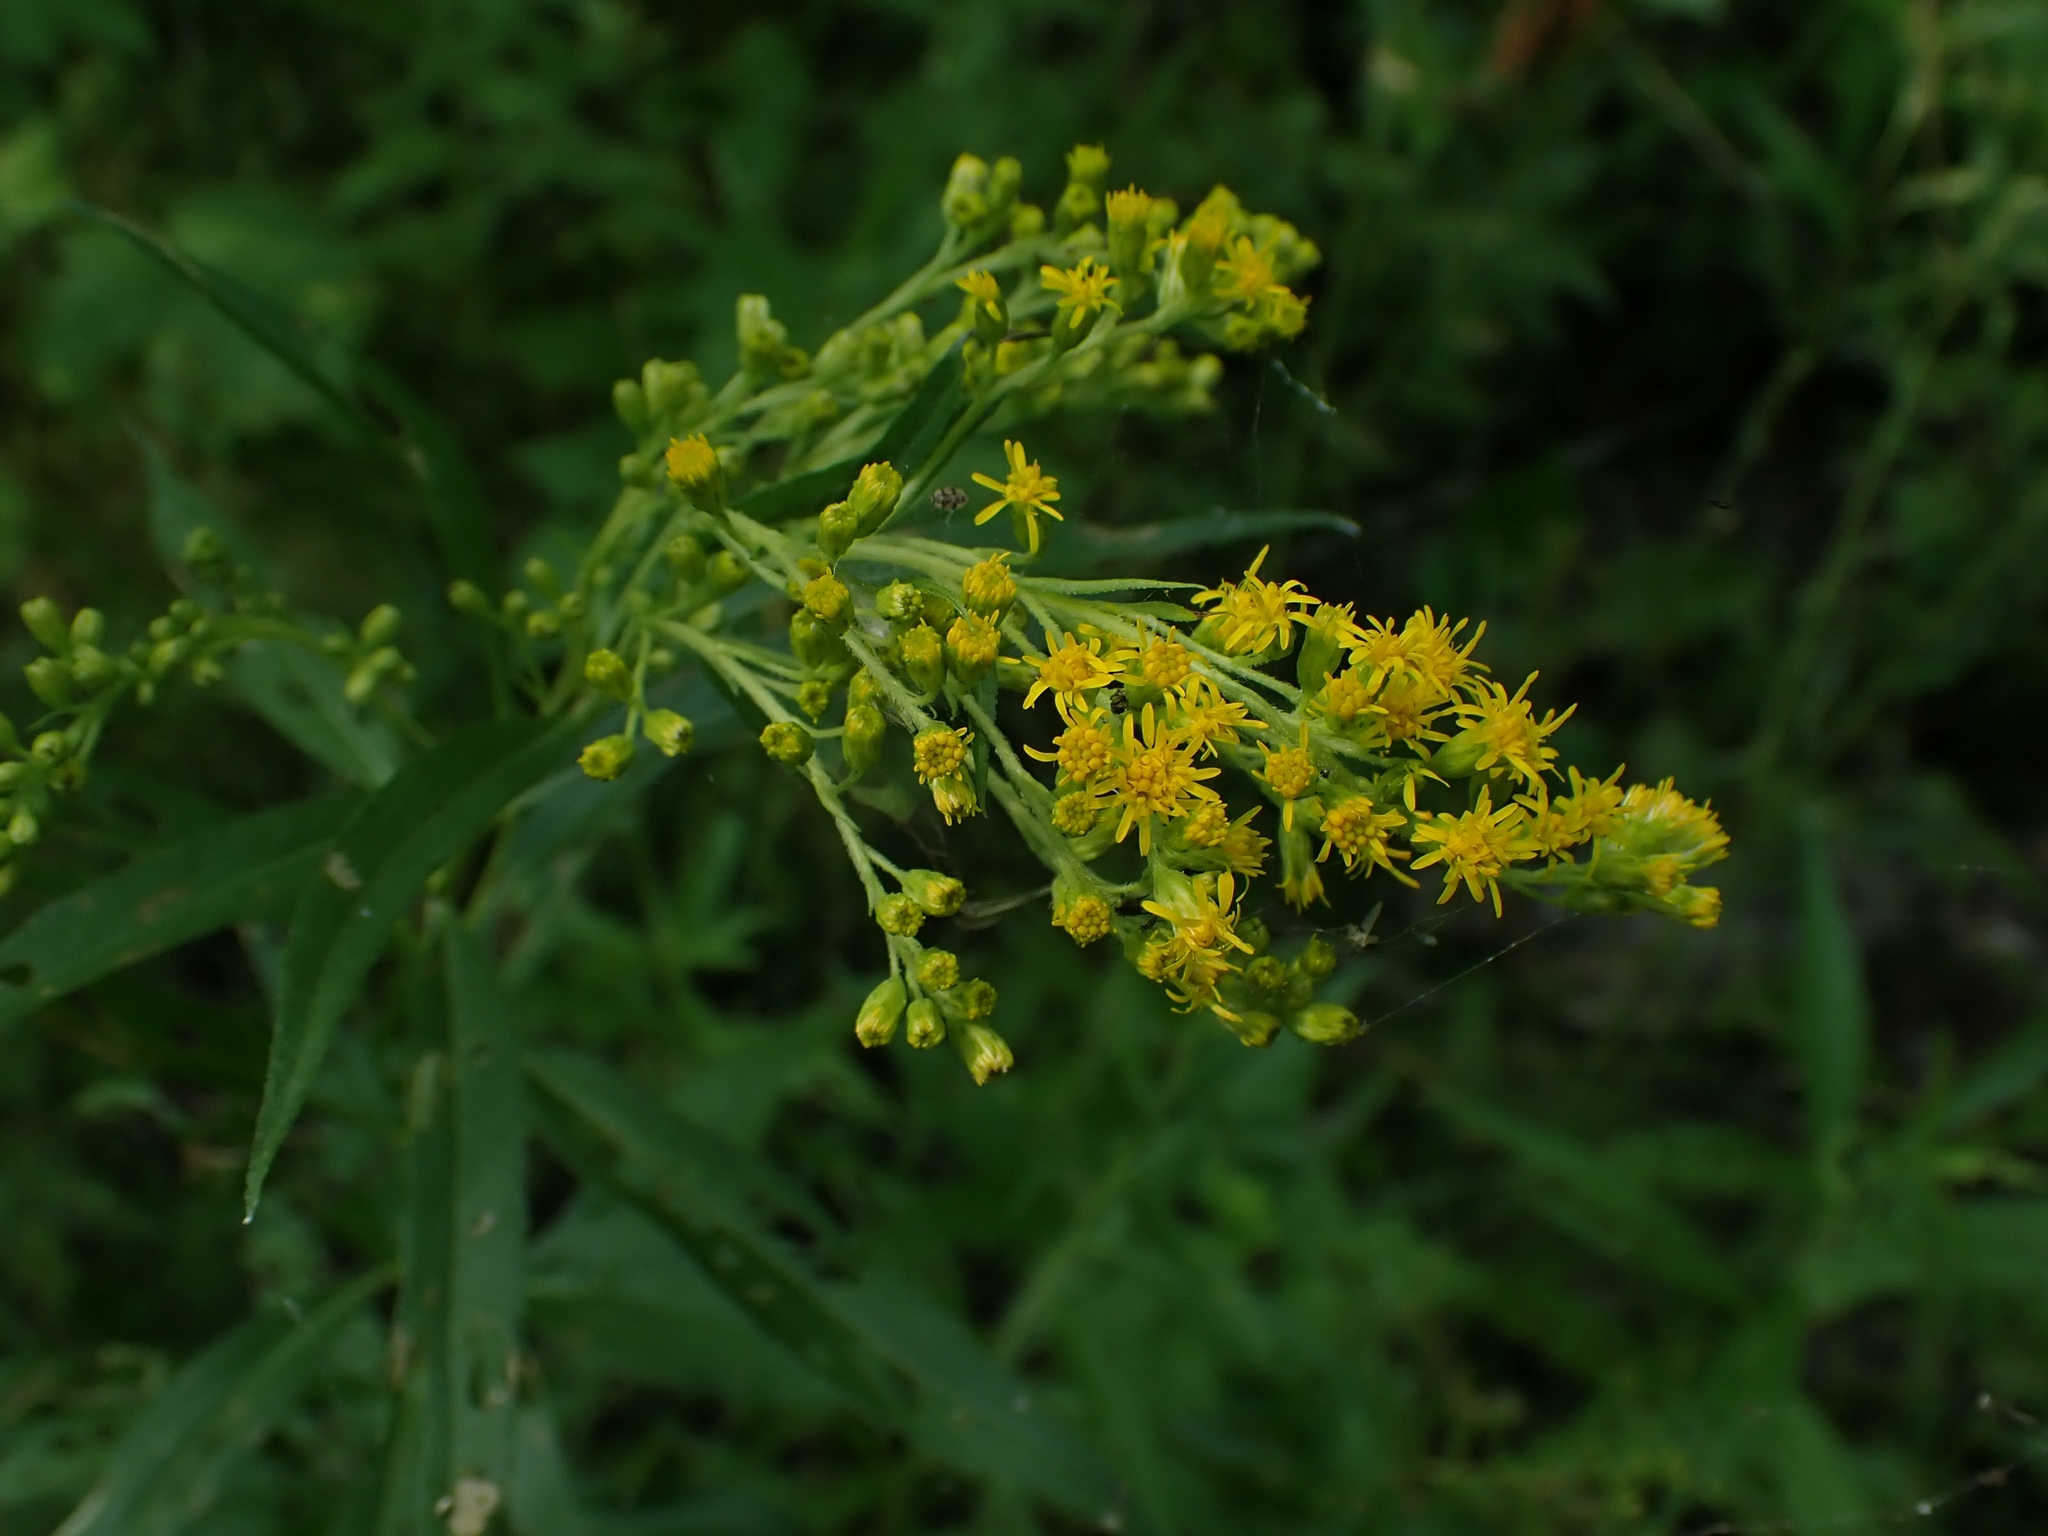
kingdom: Plantae
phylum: Tracheophyta
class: Magnoliopsida
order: Asterales
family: Asteraceae
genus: Solidago
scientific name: Solidago uliginosa
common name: Bog goldenrod
